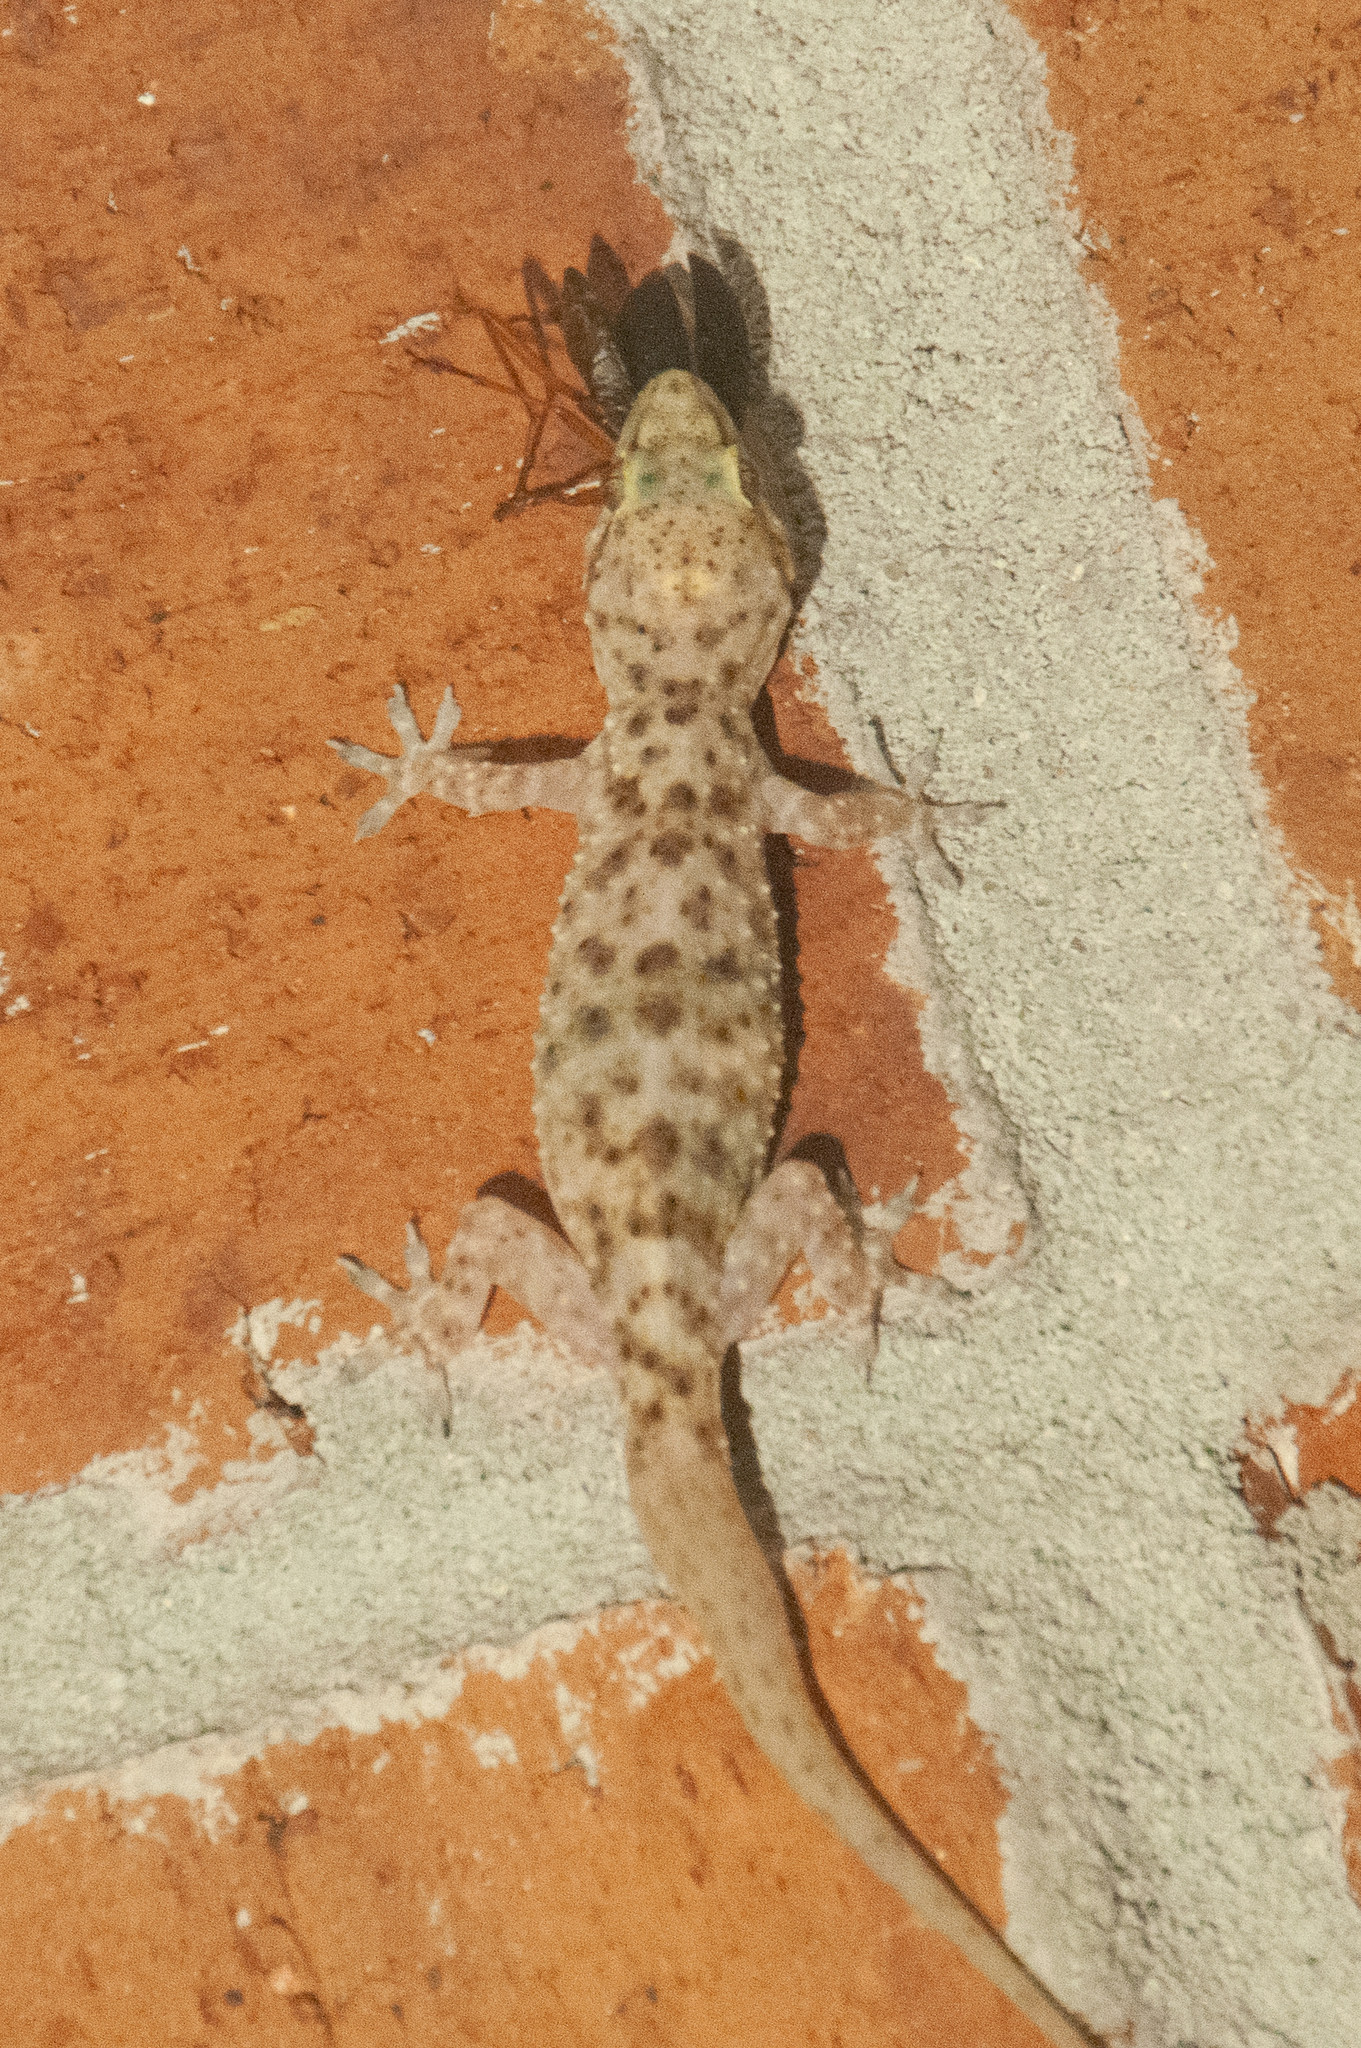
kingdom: Animalia
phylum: Chordata
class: Squamata
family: Gekkonidae
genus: Hemidactylus
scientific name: Hemidactylus turcicus
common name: Turkish gecko
